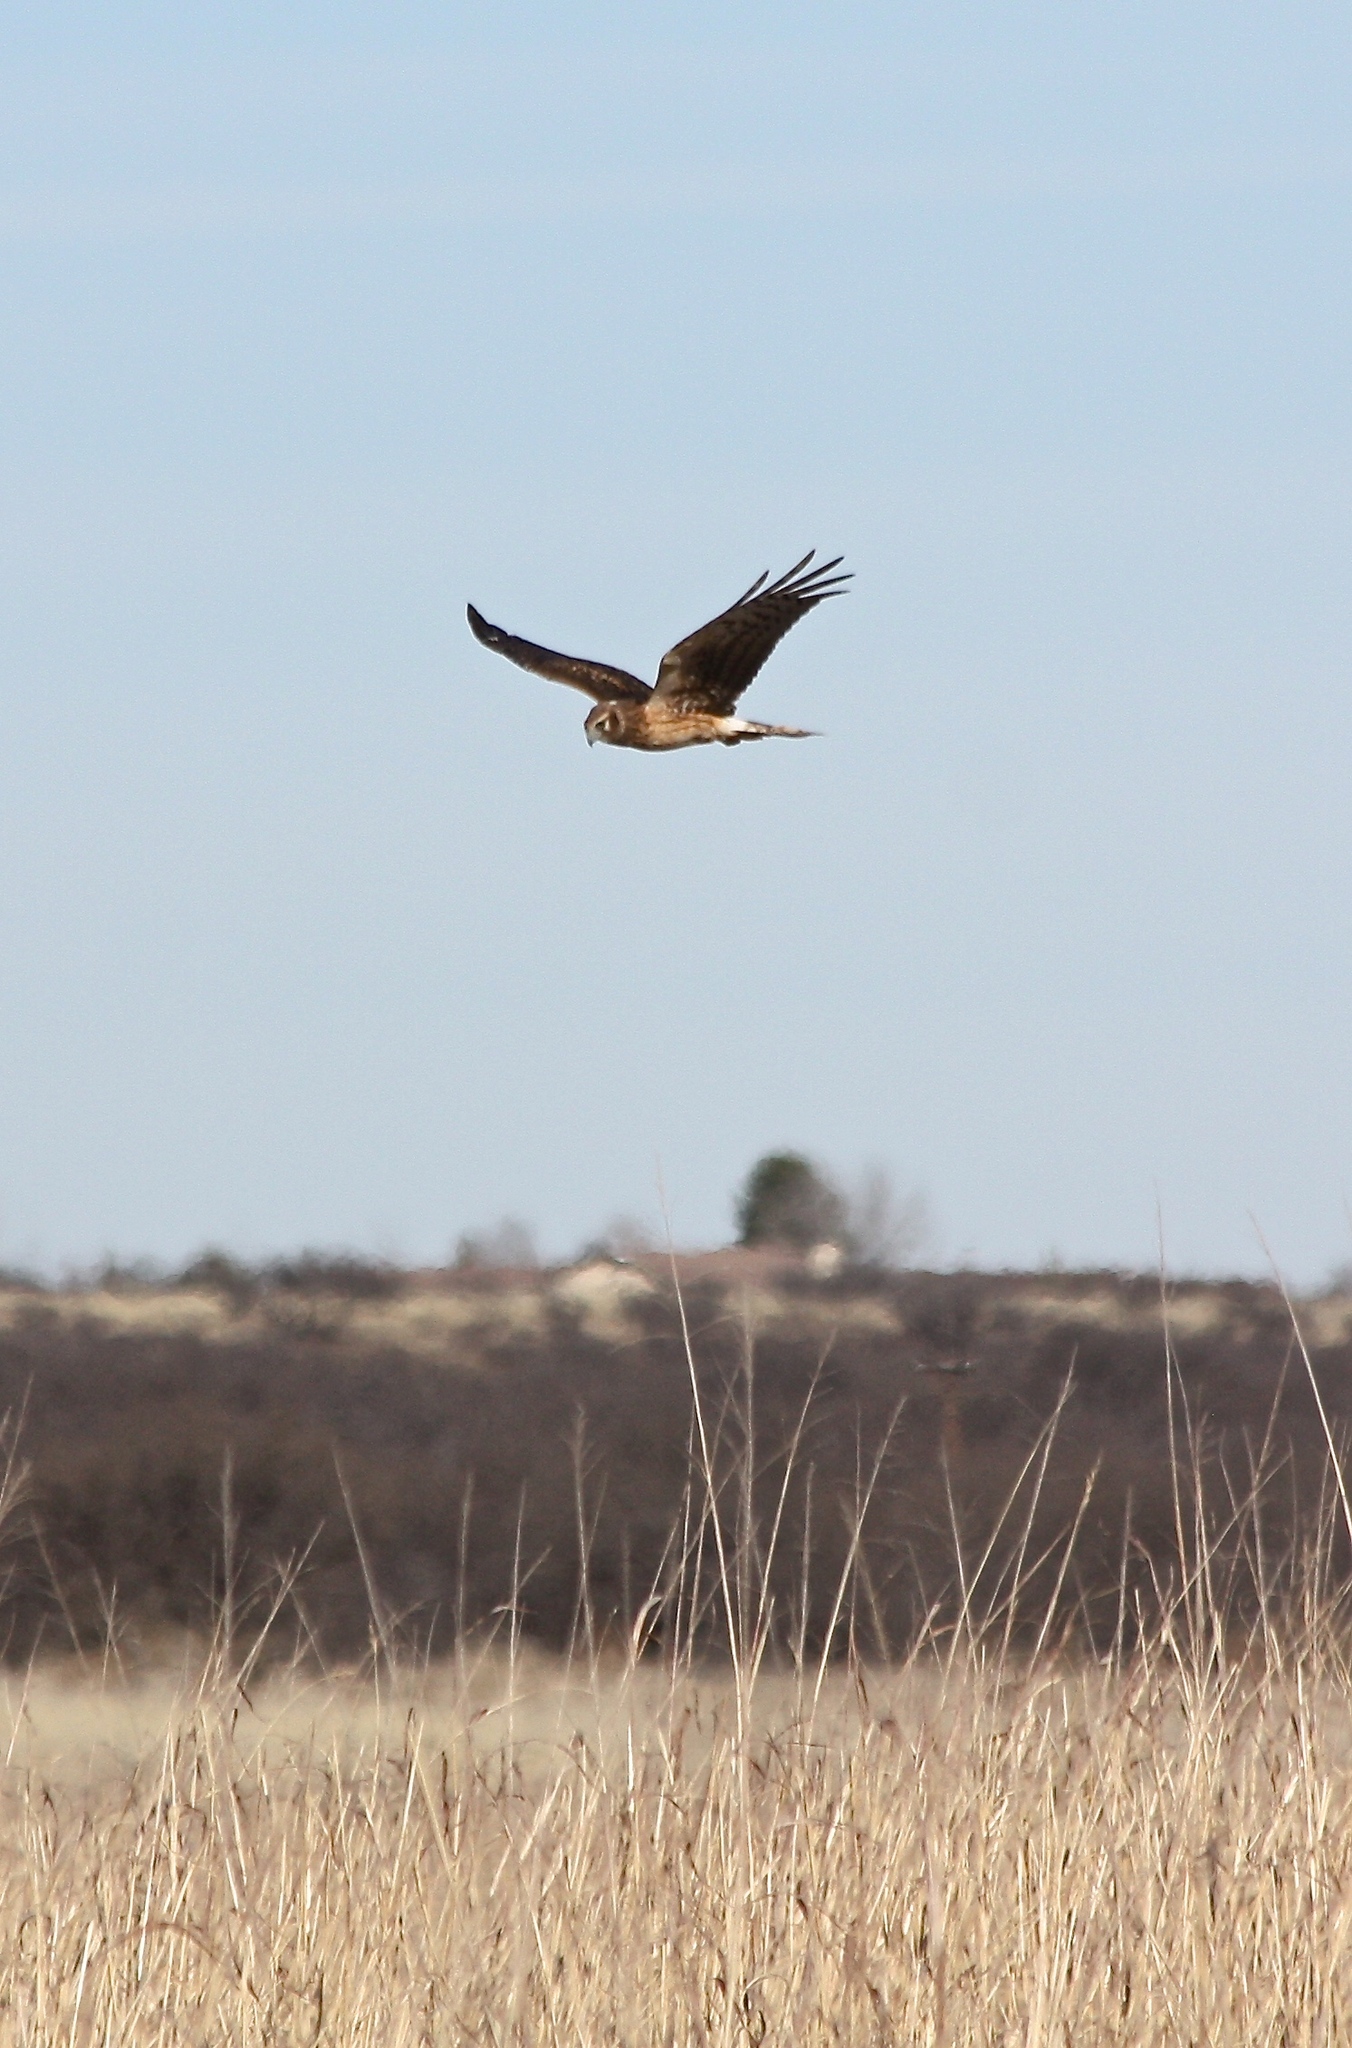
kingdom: Animalia
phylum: Chordata
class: Aves
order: Accipitriformes
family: Accipitridae
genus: Circus
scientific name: Circus cyaneus
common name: Hen harrier
